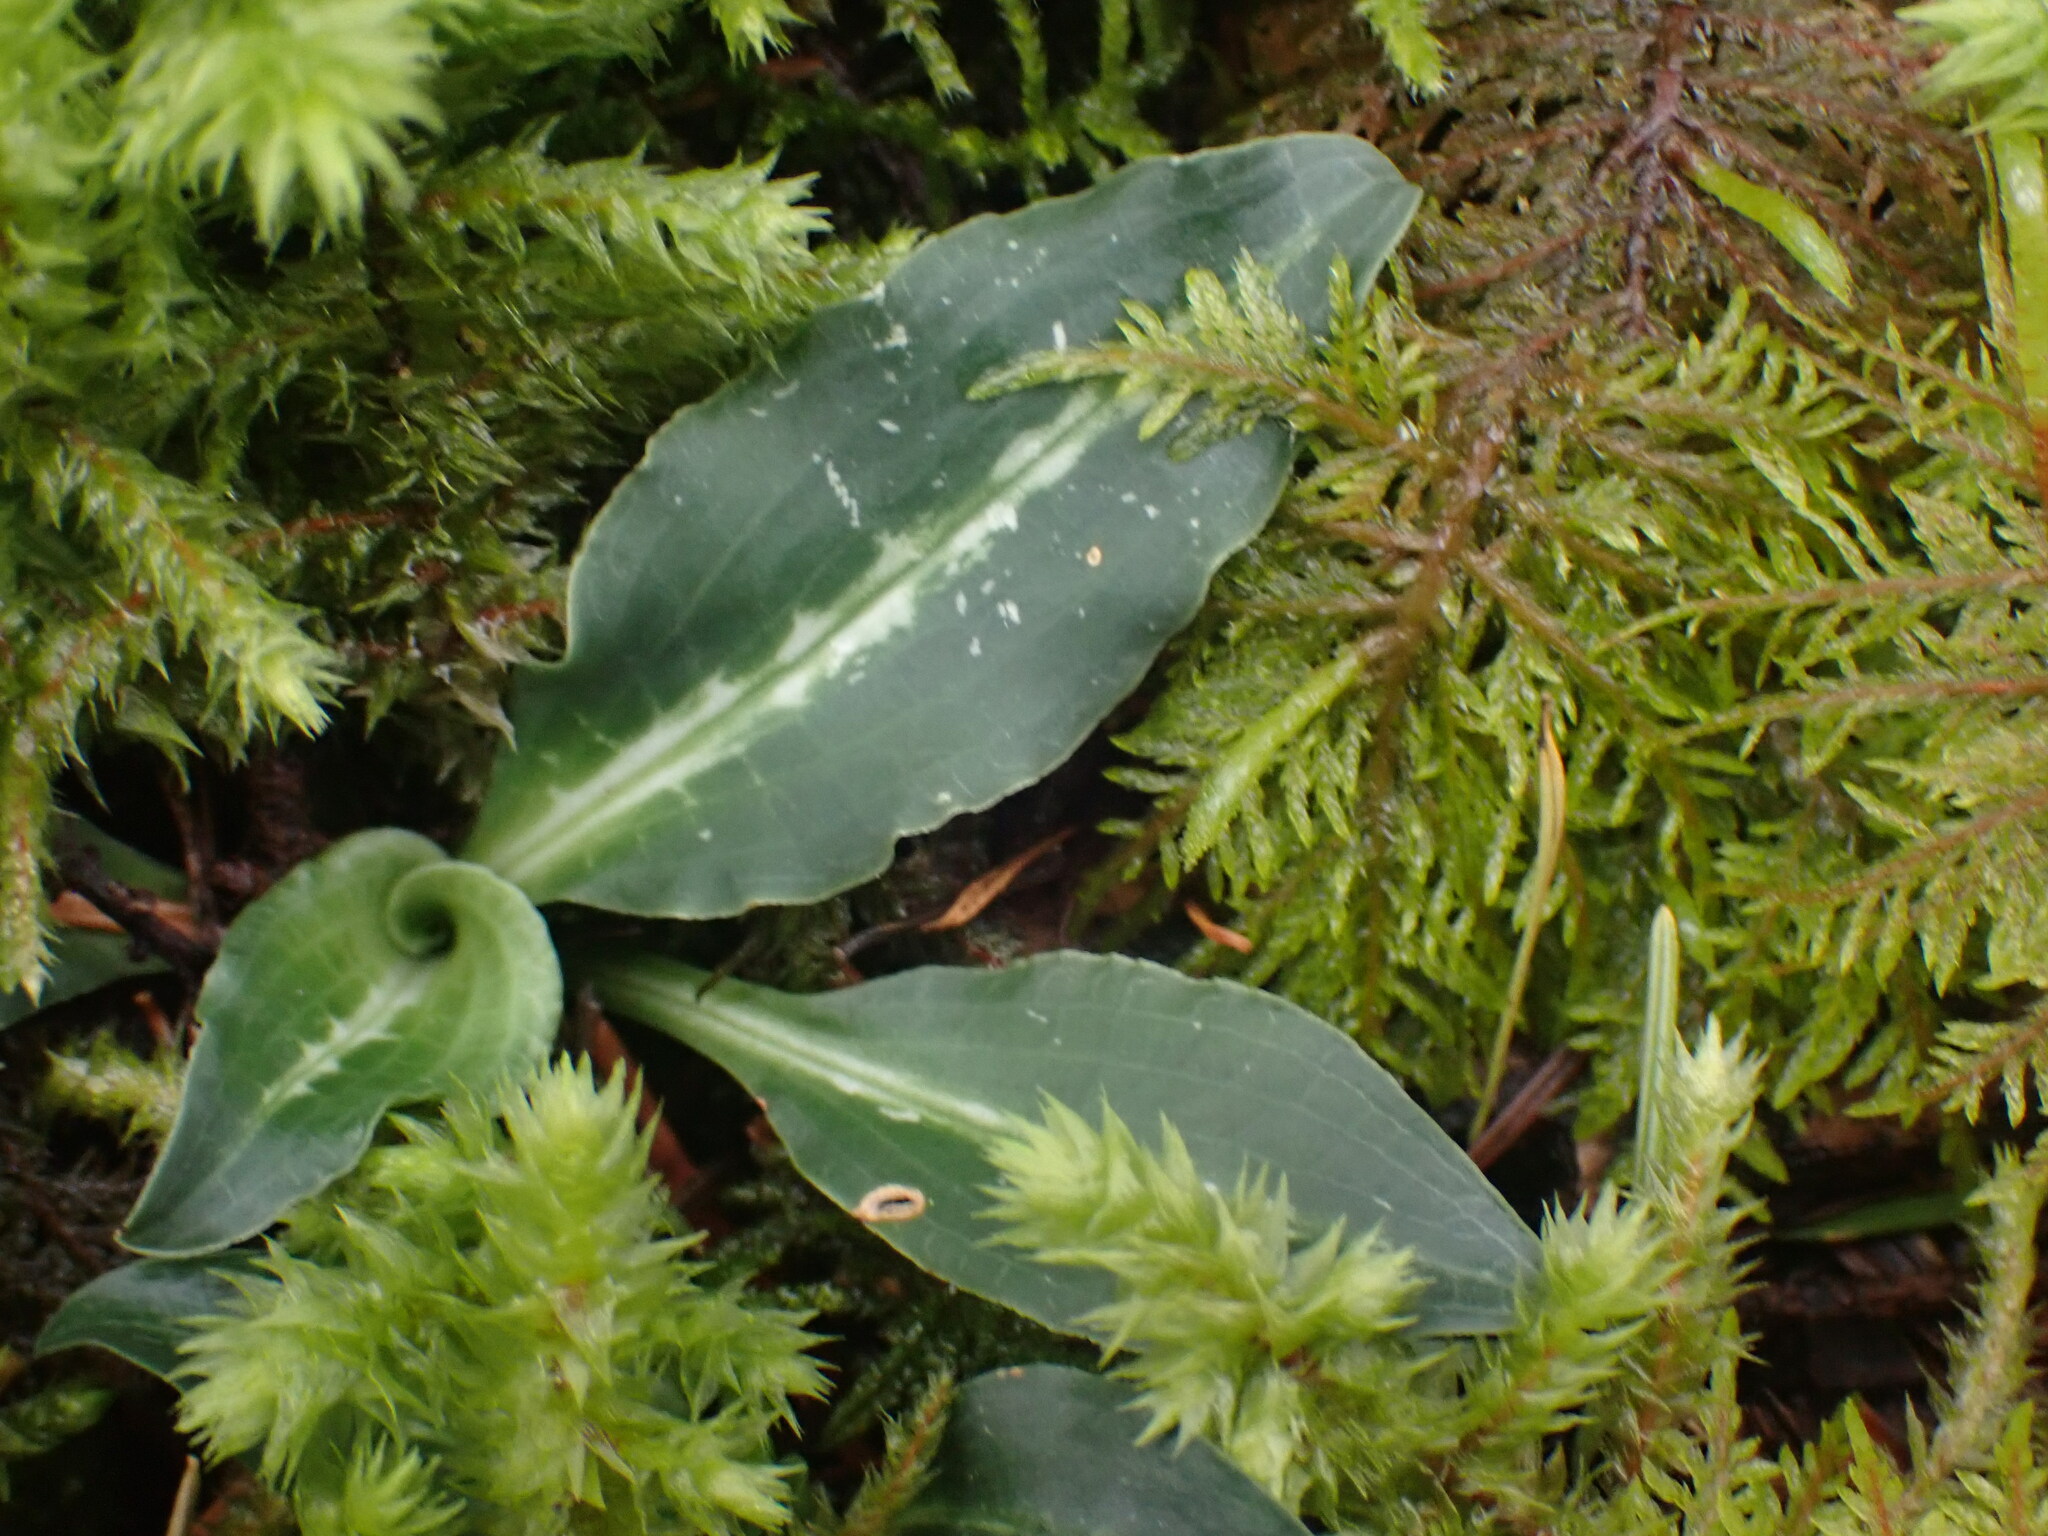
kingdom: Plantae
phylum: Tracheophyta
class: Liliopsida
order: Asparagales
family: Orchidaceae
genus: Goodyera
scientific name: Goodyera oblongifolia
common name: Giant rattlesnake-plantain
